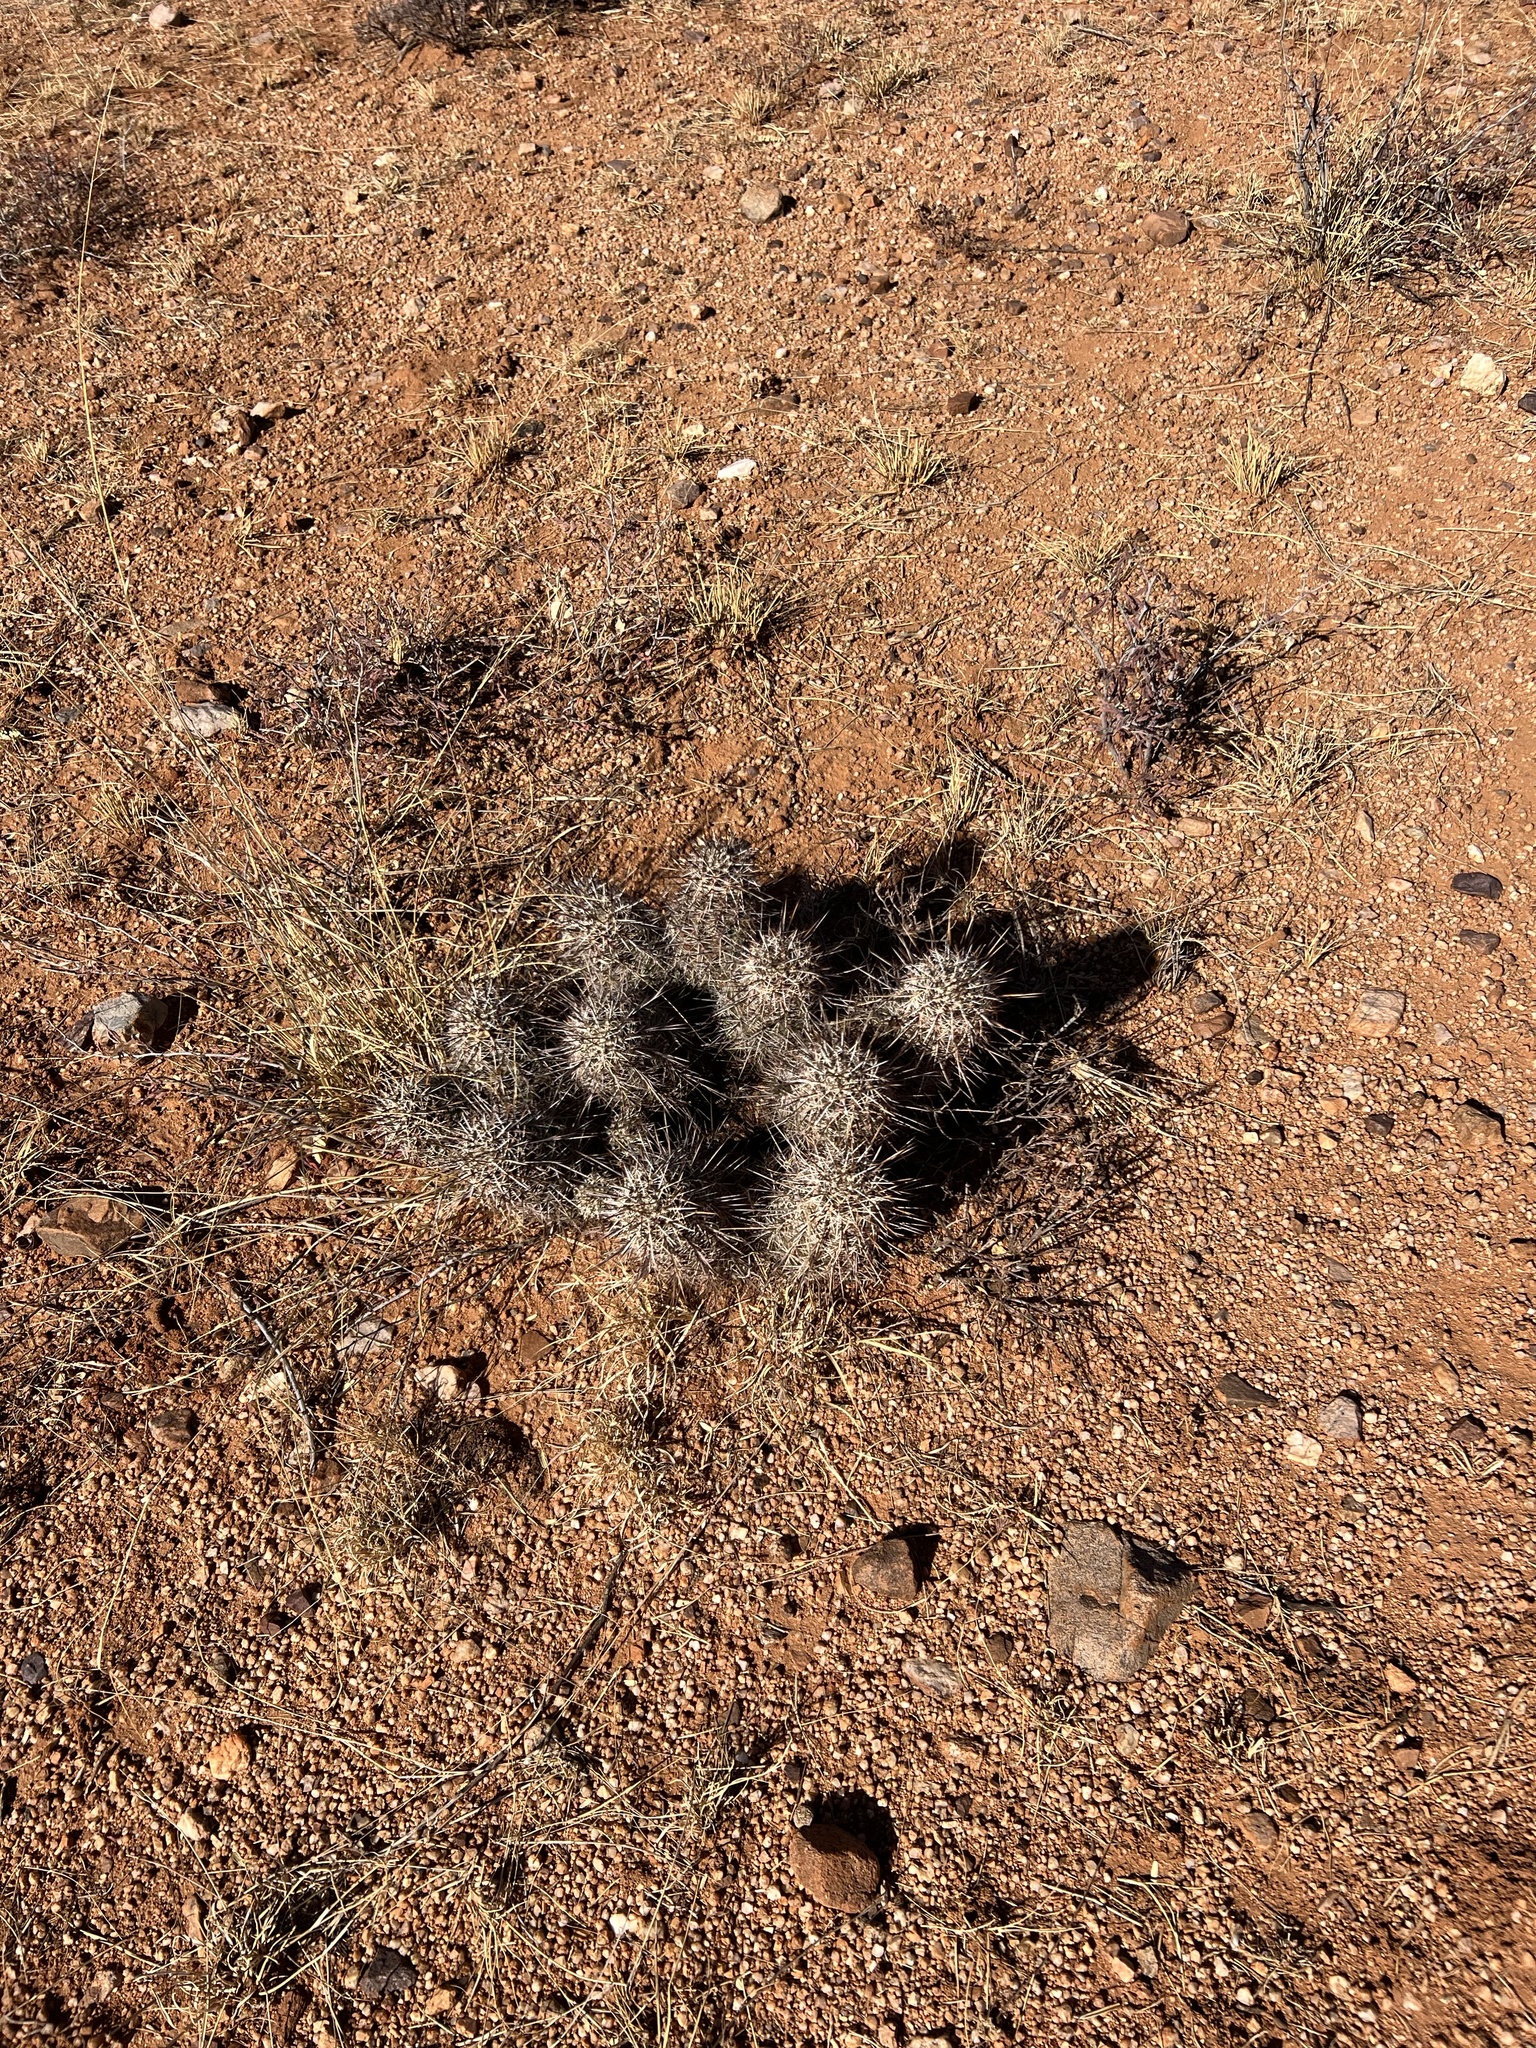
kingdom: Plantae
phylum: Tracheophyta
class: Magnoliopsida
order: Caryophyllales
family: Cactaceae
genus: Echinocereus
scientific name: Echinocereus fasciculatus
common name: Bundle hedgehog
